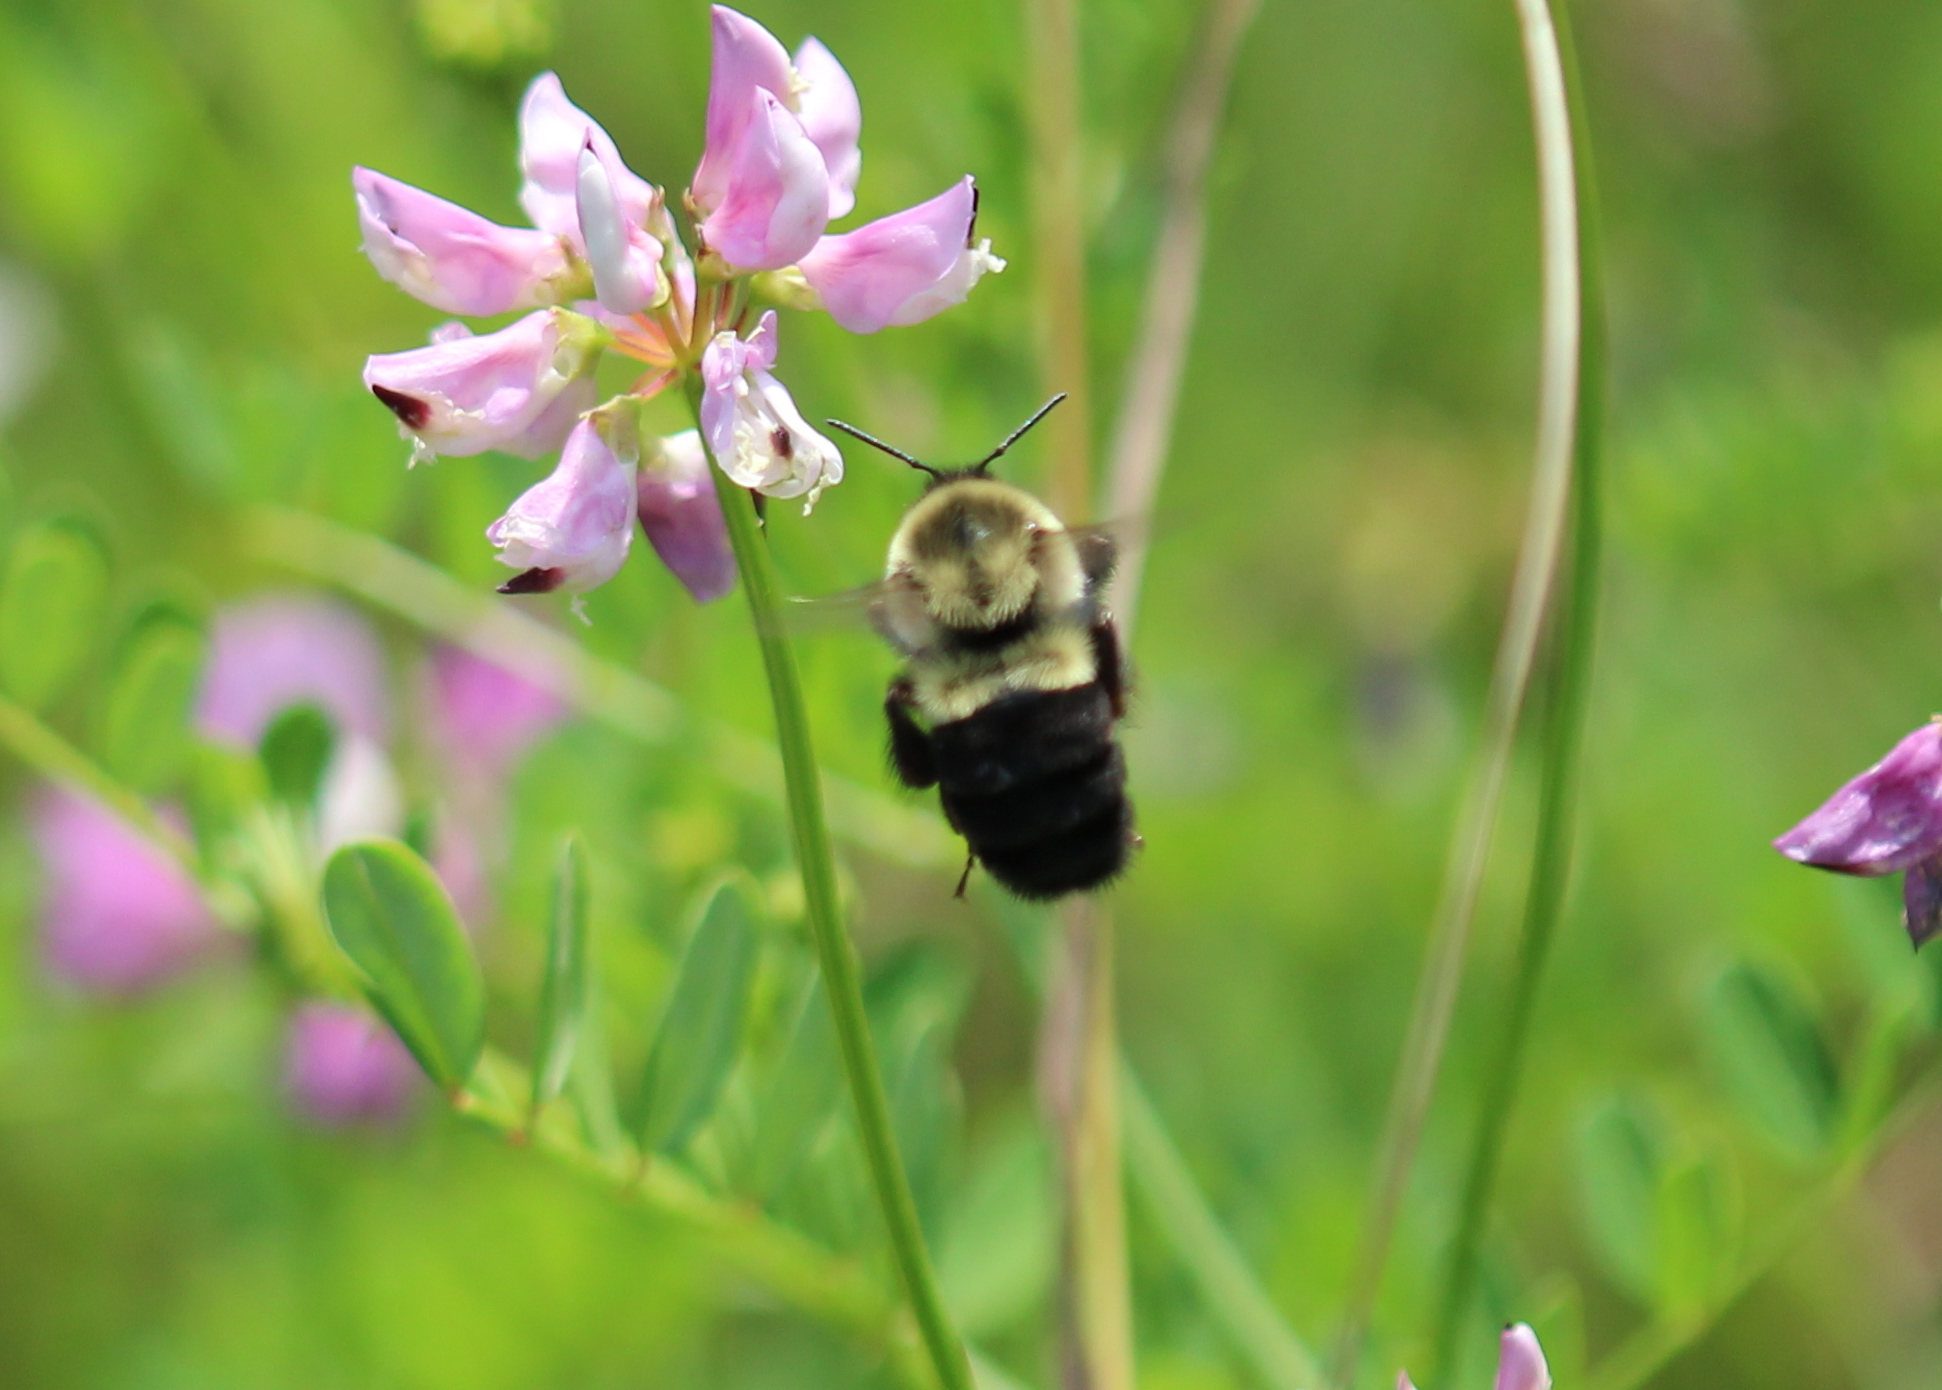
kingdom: Animalia
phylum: Arthropoda
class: Insecta
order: Hymenoptera
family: Apidae
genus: Bombus
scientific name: Bombus impatiens
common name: Common eastern bumble bee
